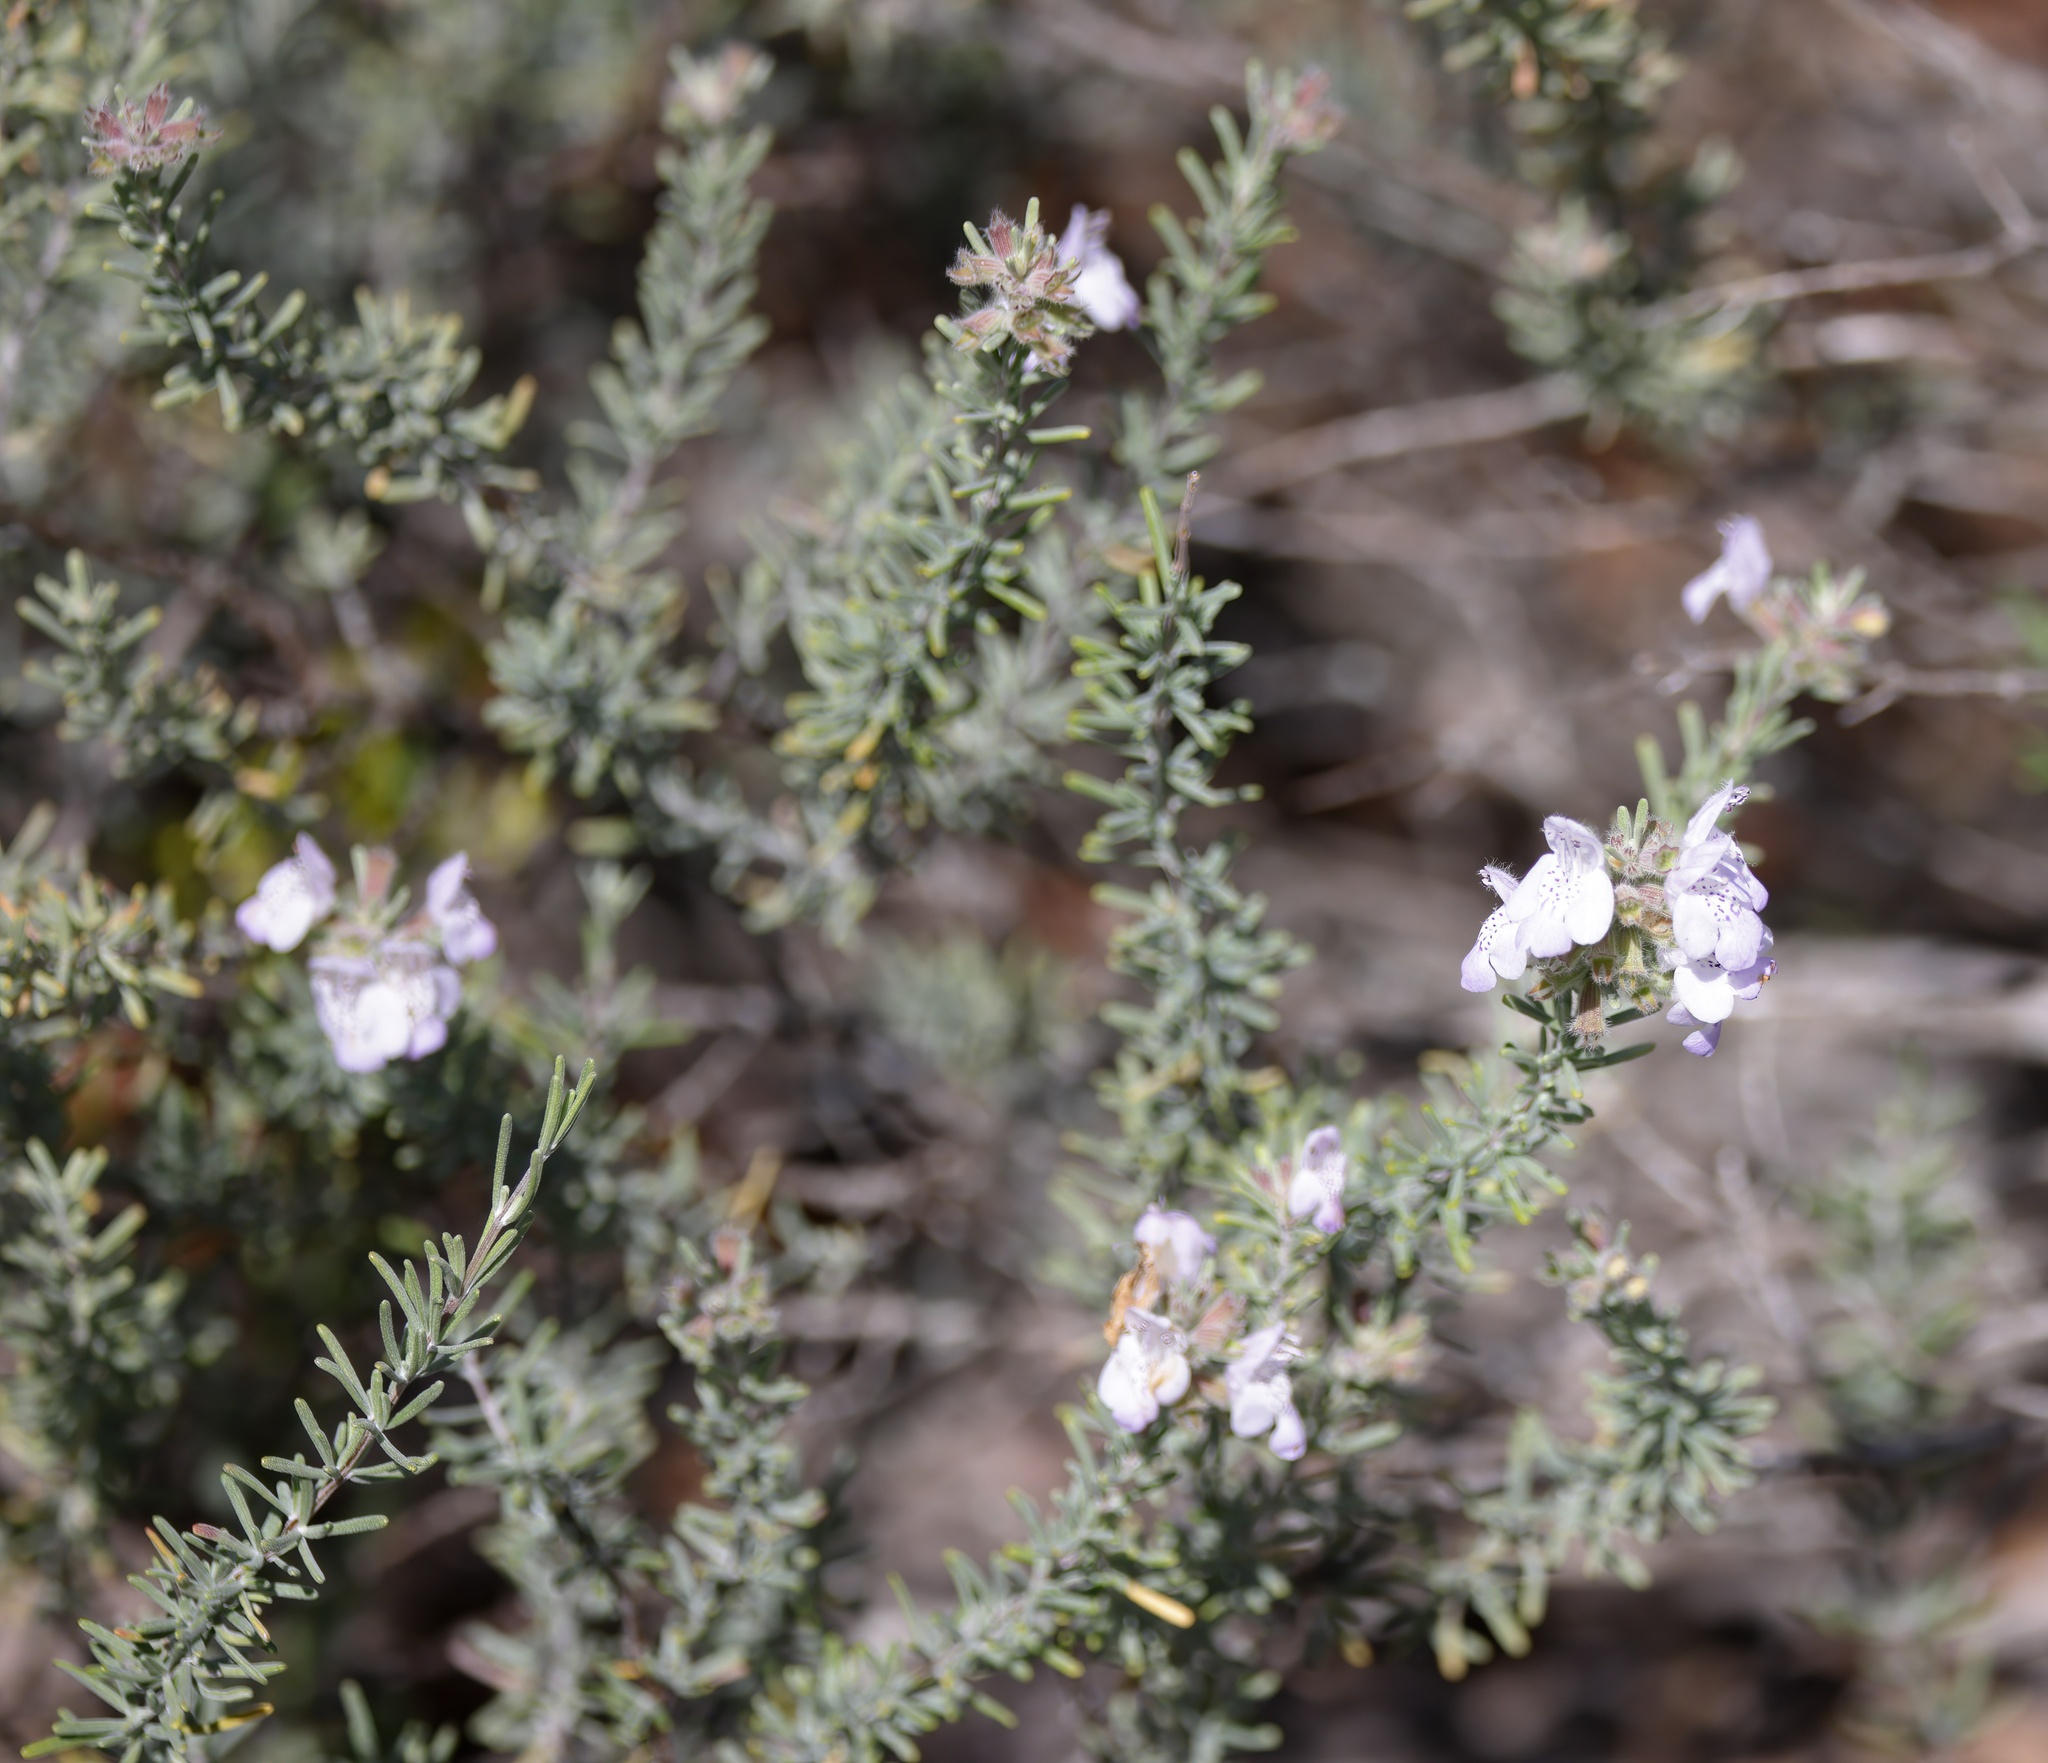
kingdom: Plantae
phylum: Tracheophyta
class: Magnoliopsida
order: Lamiales
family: Lamiaceae
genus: Conradina
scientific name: Conradina canescens
